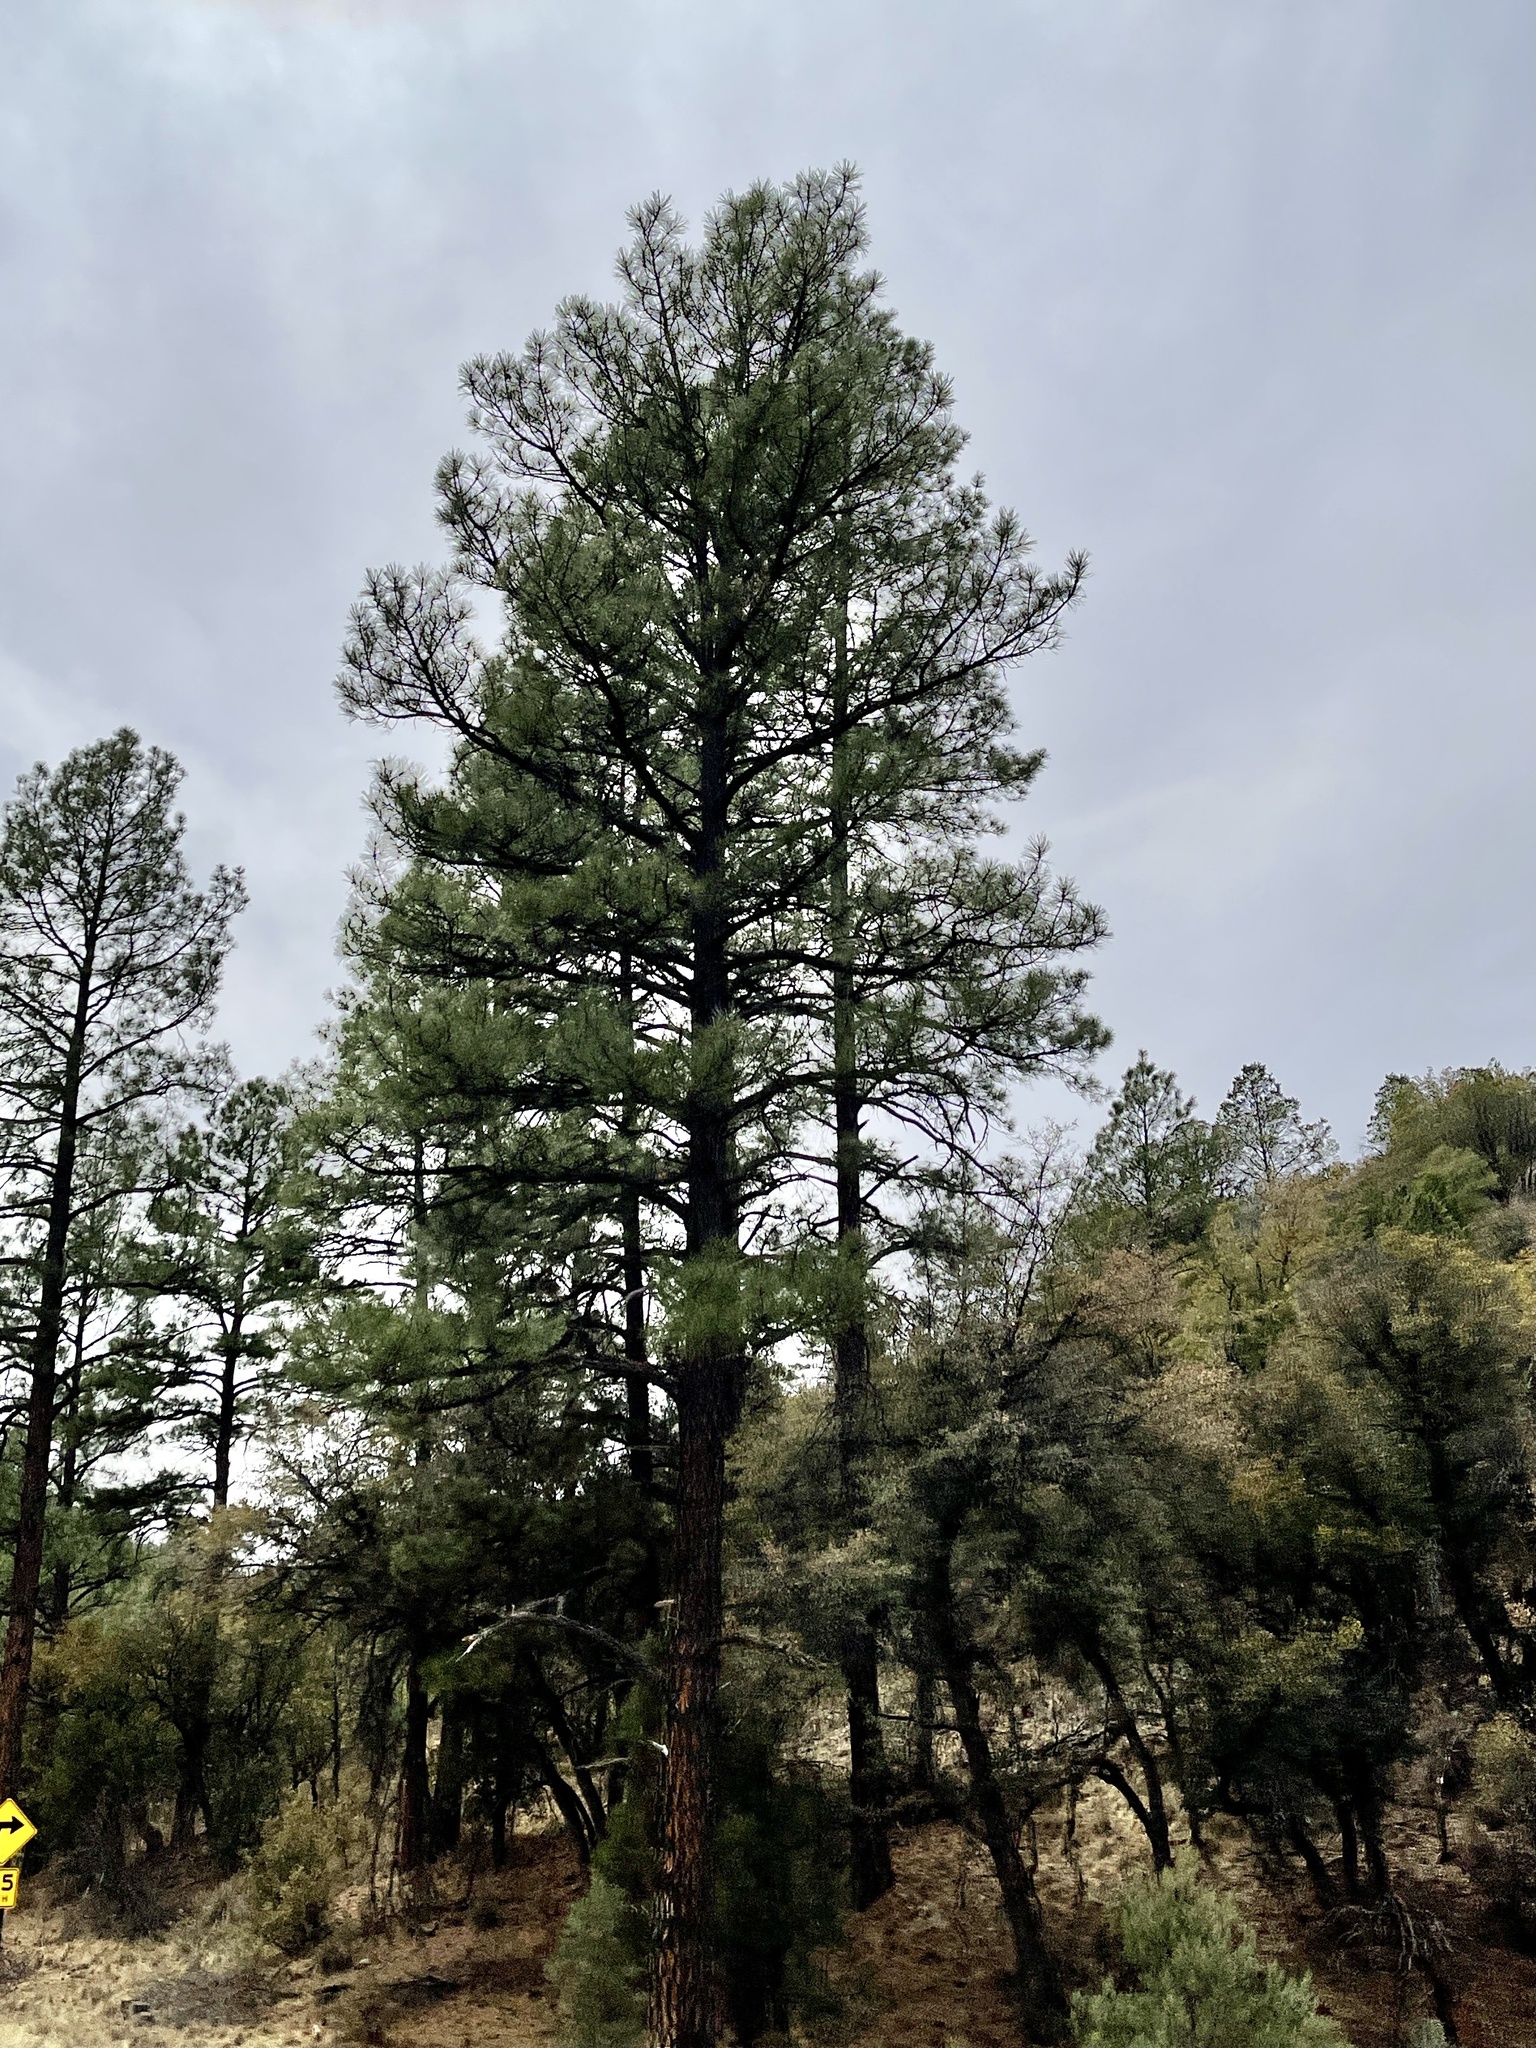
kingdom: Plantae
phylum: Tracheophyta
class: Pinopsida
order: Pinales
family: Pinaceae
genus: Pinus
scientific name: Pinus ponderosa
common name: Western yellow-pine
